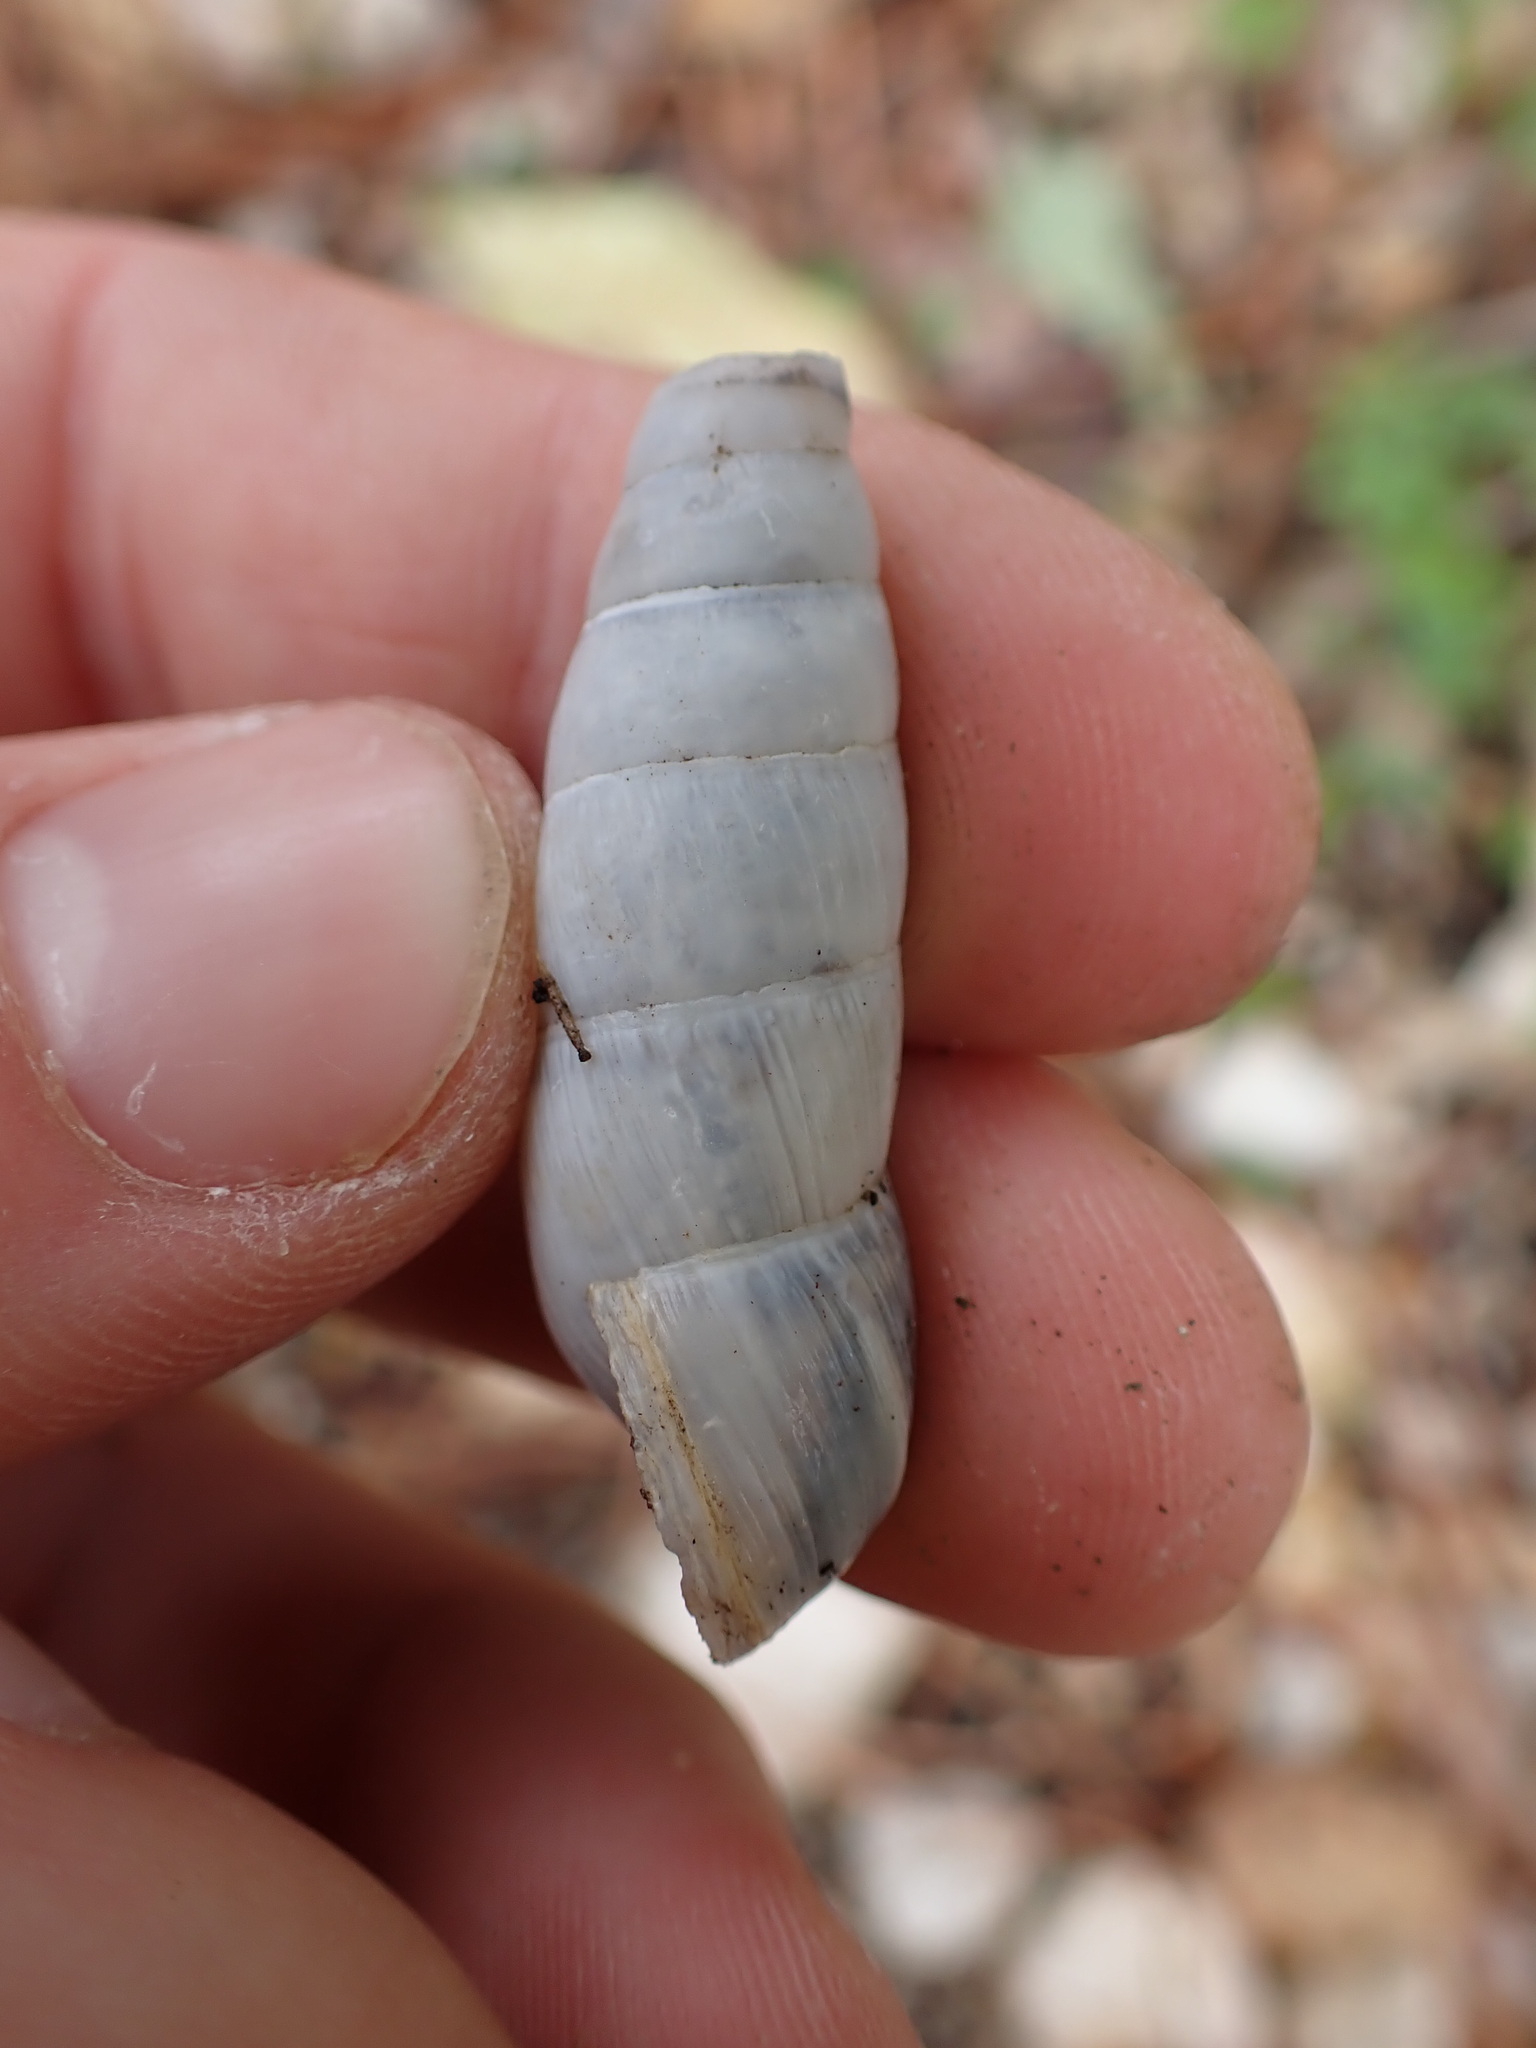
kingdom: Animalia
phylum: Mollusca
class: Gastropoda
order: Stylommatophora
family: Achatinidae
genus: Rumina
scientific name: Rumina decollata
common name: Decollate snail
